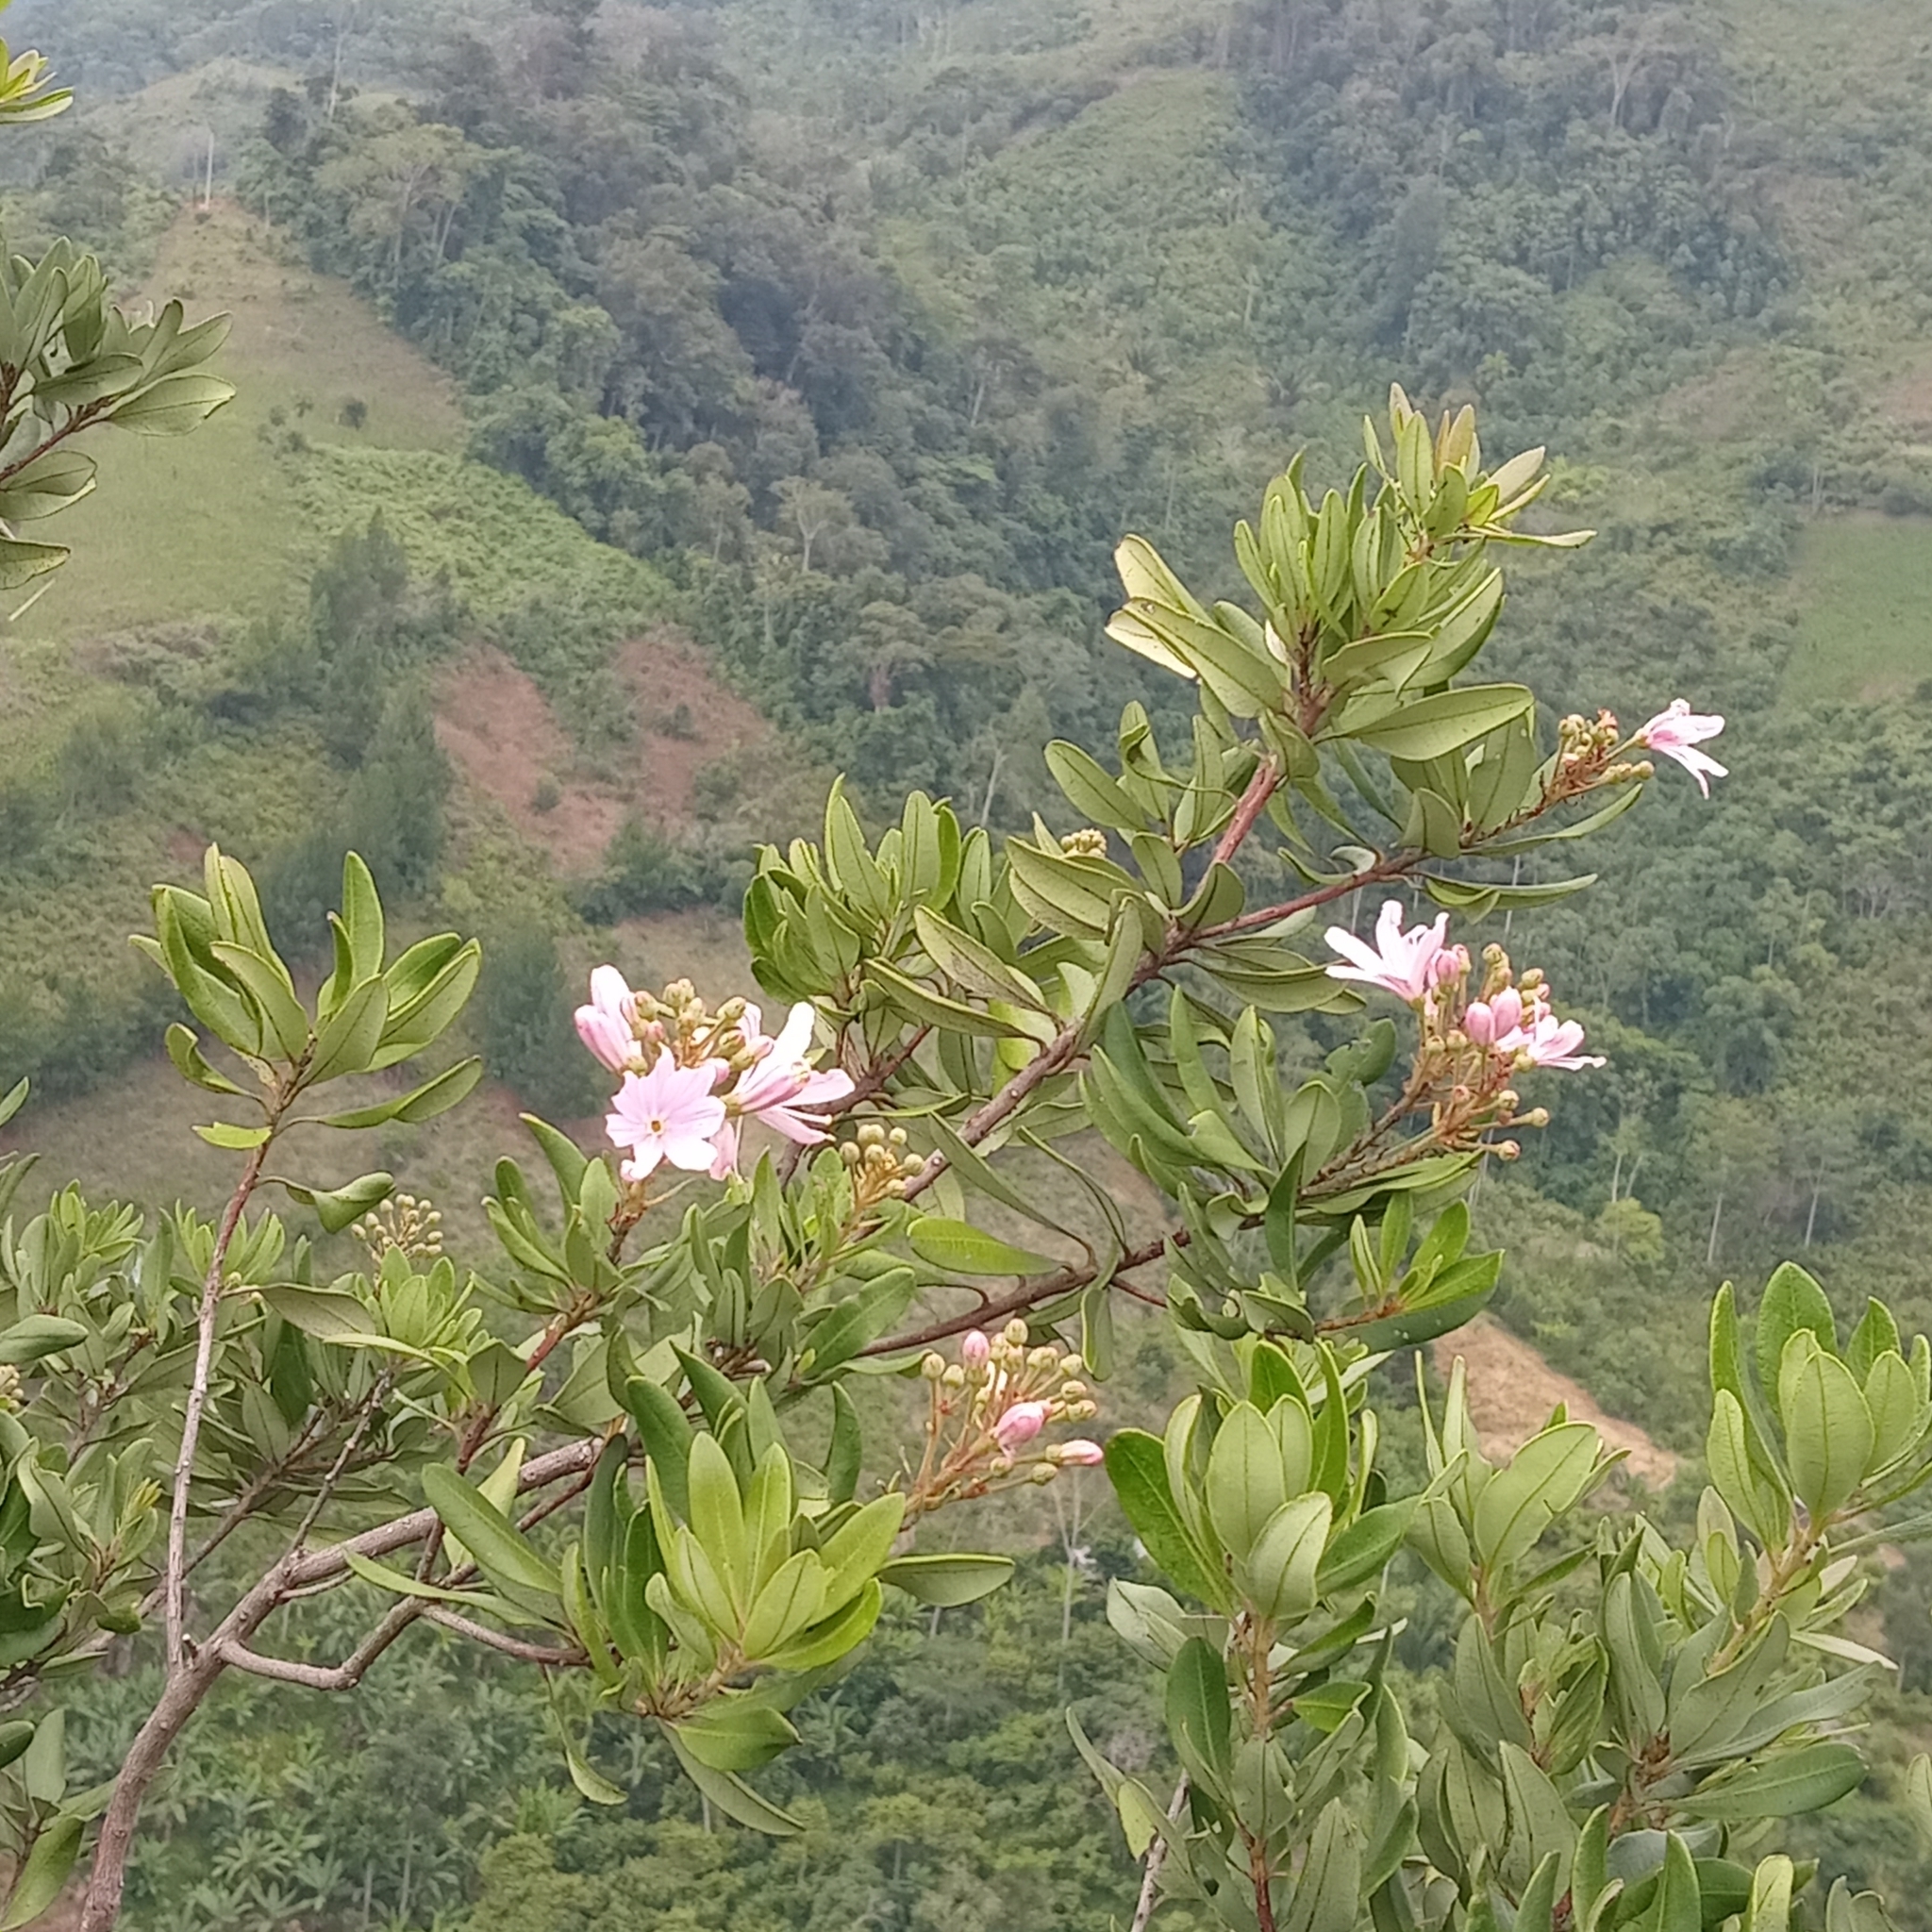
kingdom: Plantae
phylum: Tracheophyta
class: Magnoliopsida
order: Ericales
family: Ericaceae
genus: Bejaria
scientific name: Bejaria aestuans
